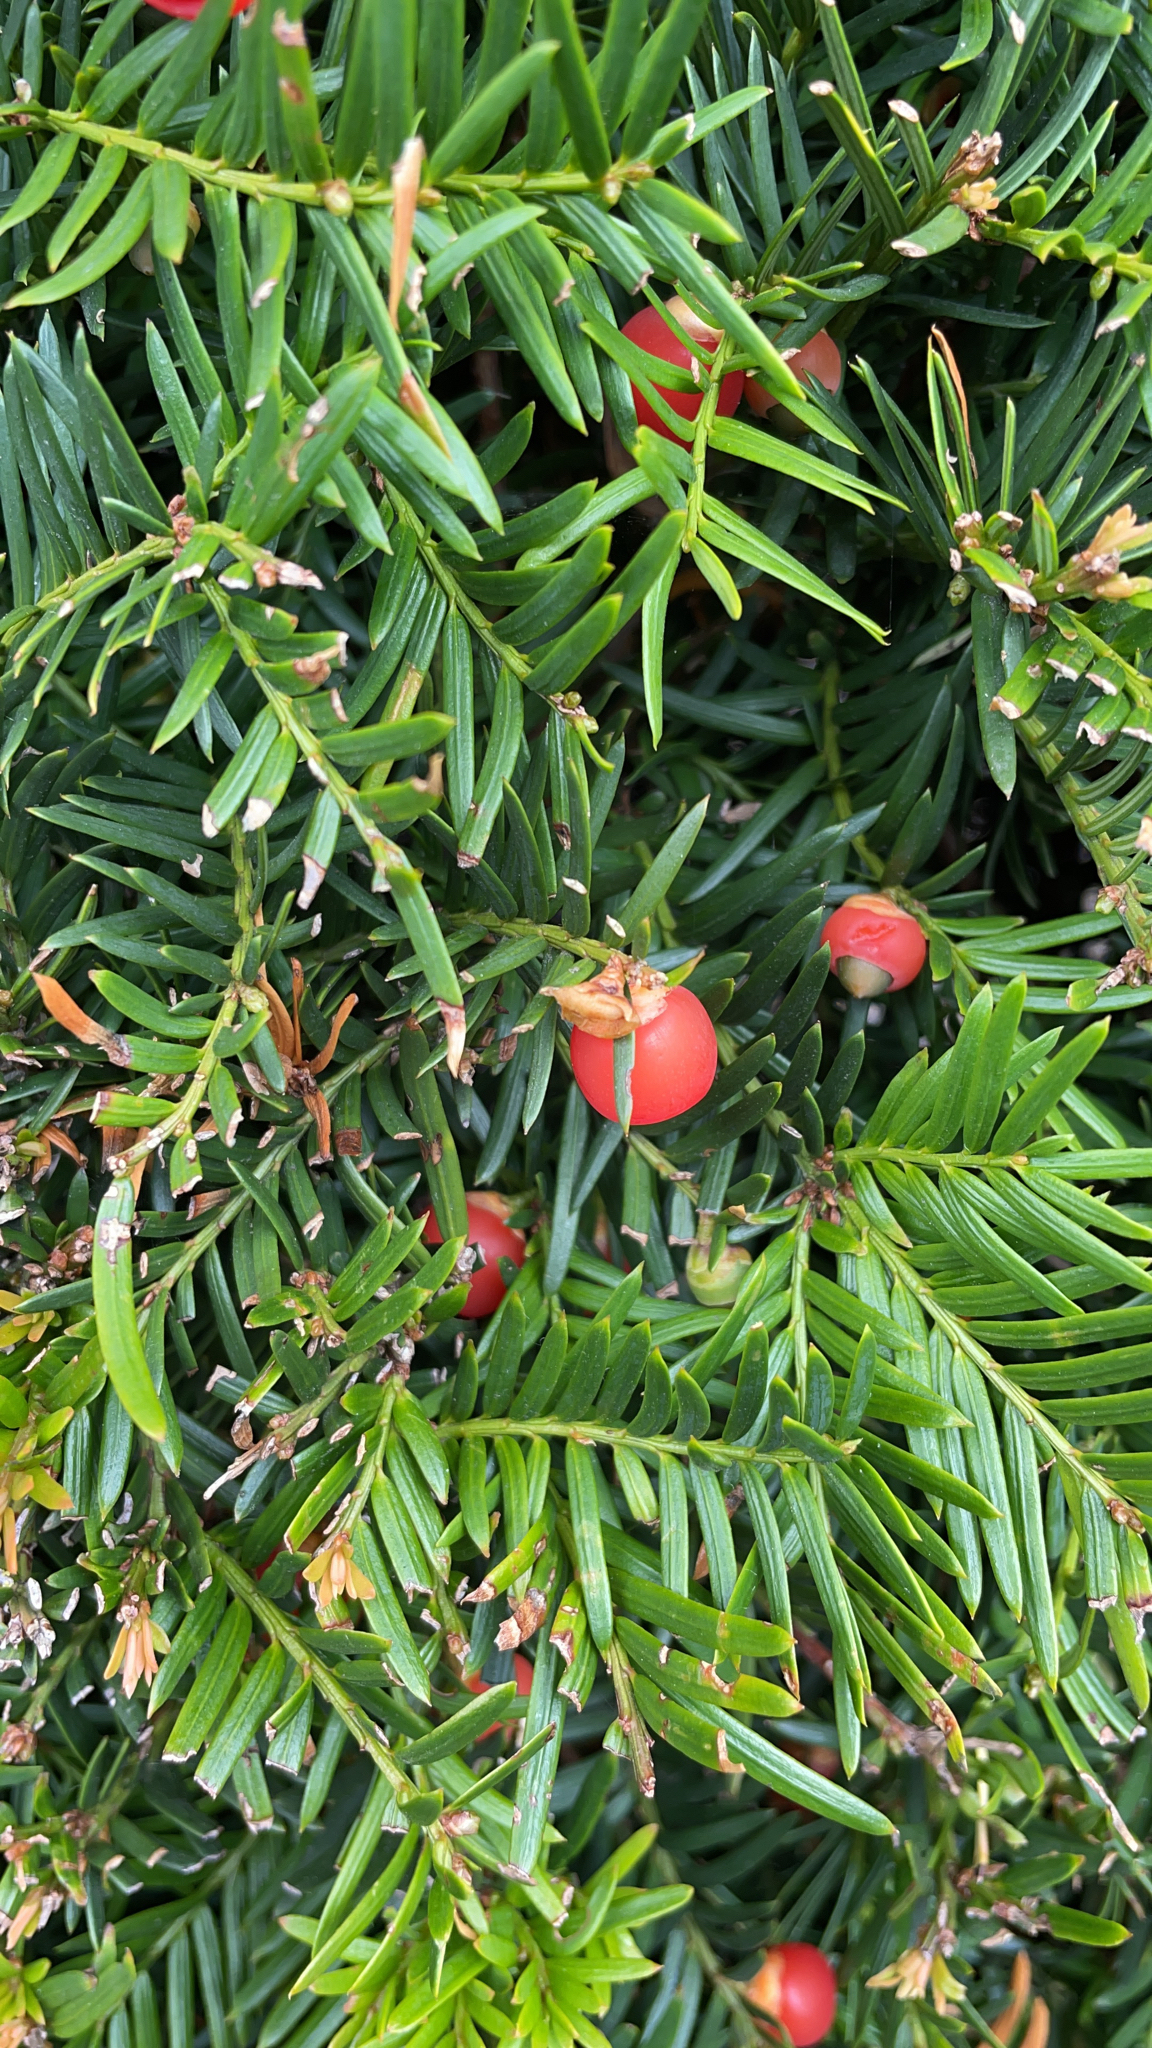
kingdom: Plantae
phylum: Tracheophyta
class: Pinopsida
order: Pinales
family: Taxaceae
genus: Taxus
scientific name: Taxus baccata
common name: Yew
